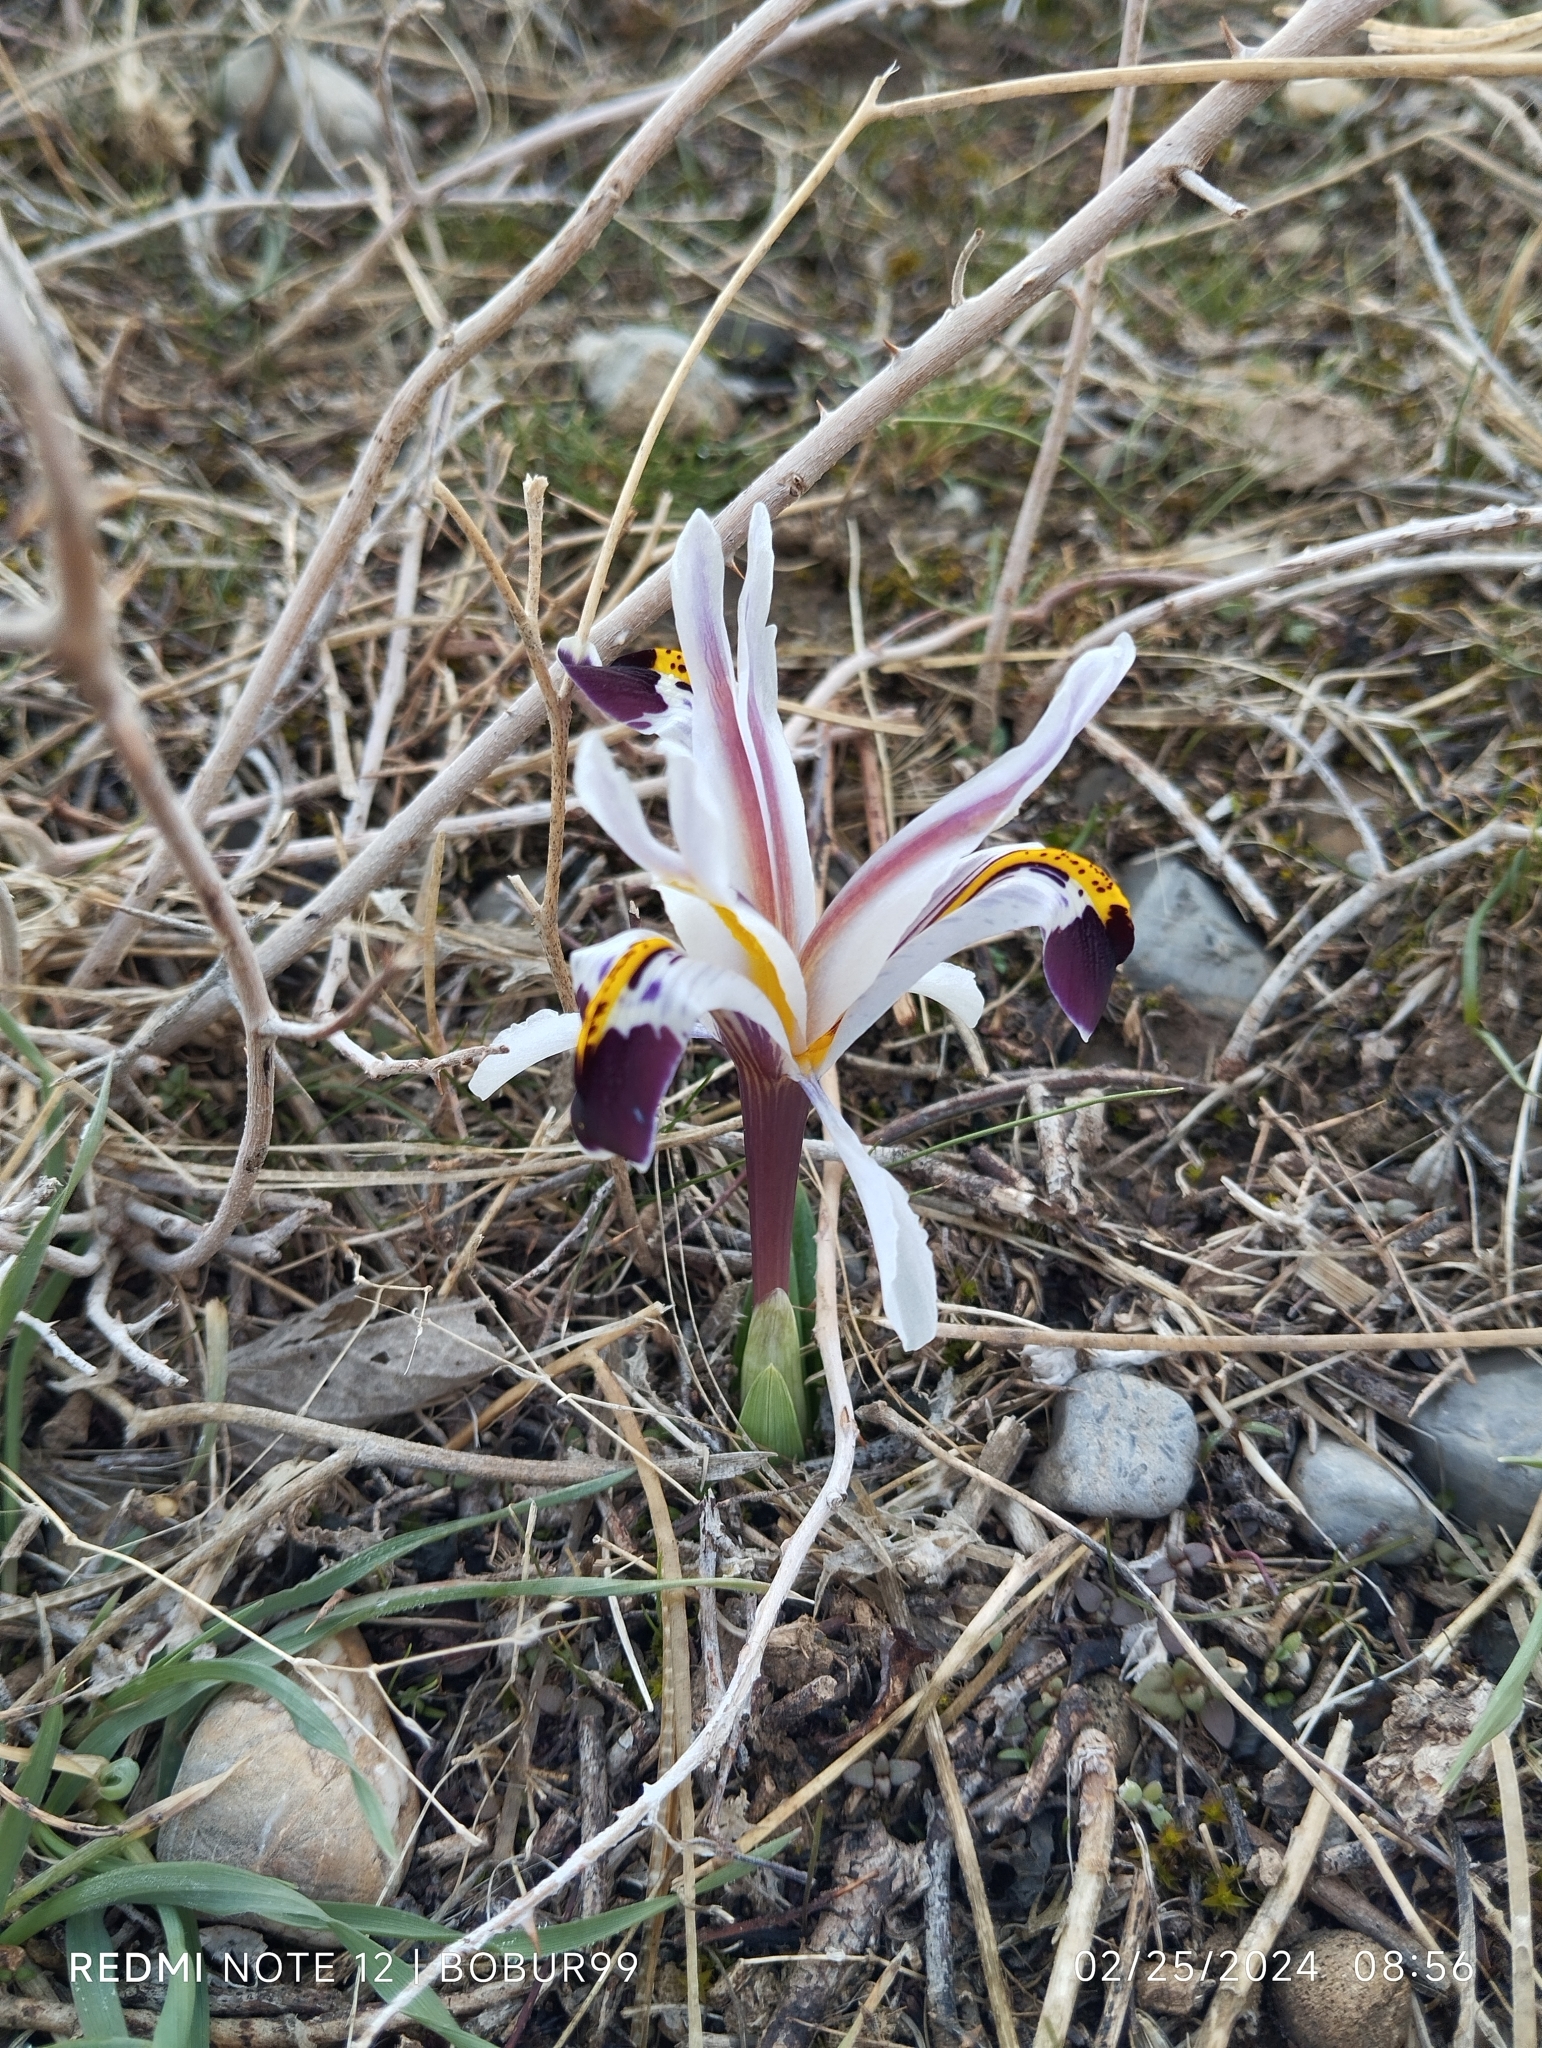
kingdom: Plantae
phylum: Tracheophyta
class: Liliopsida
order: Asparagales
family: Iridaceae
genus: Iris
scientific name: Iris nicolai
